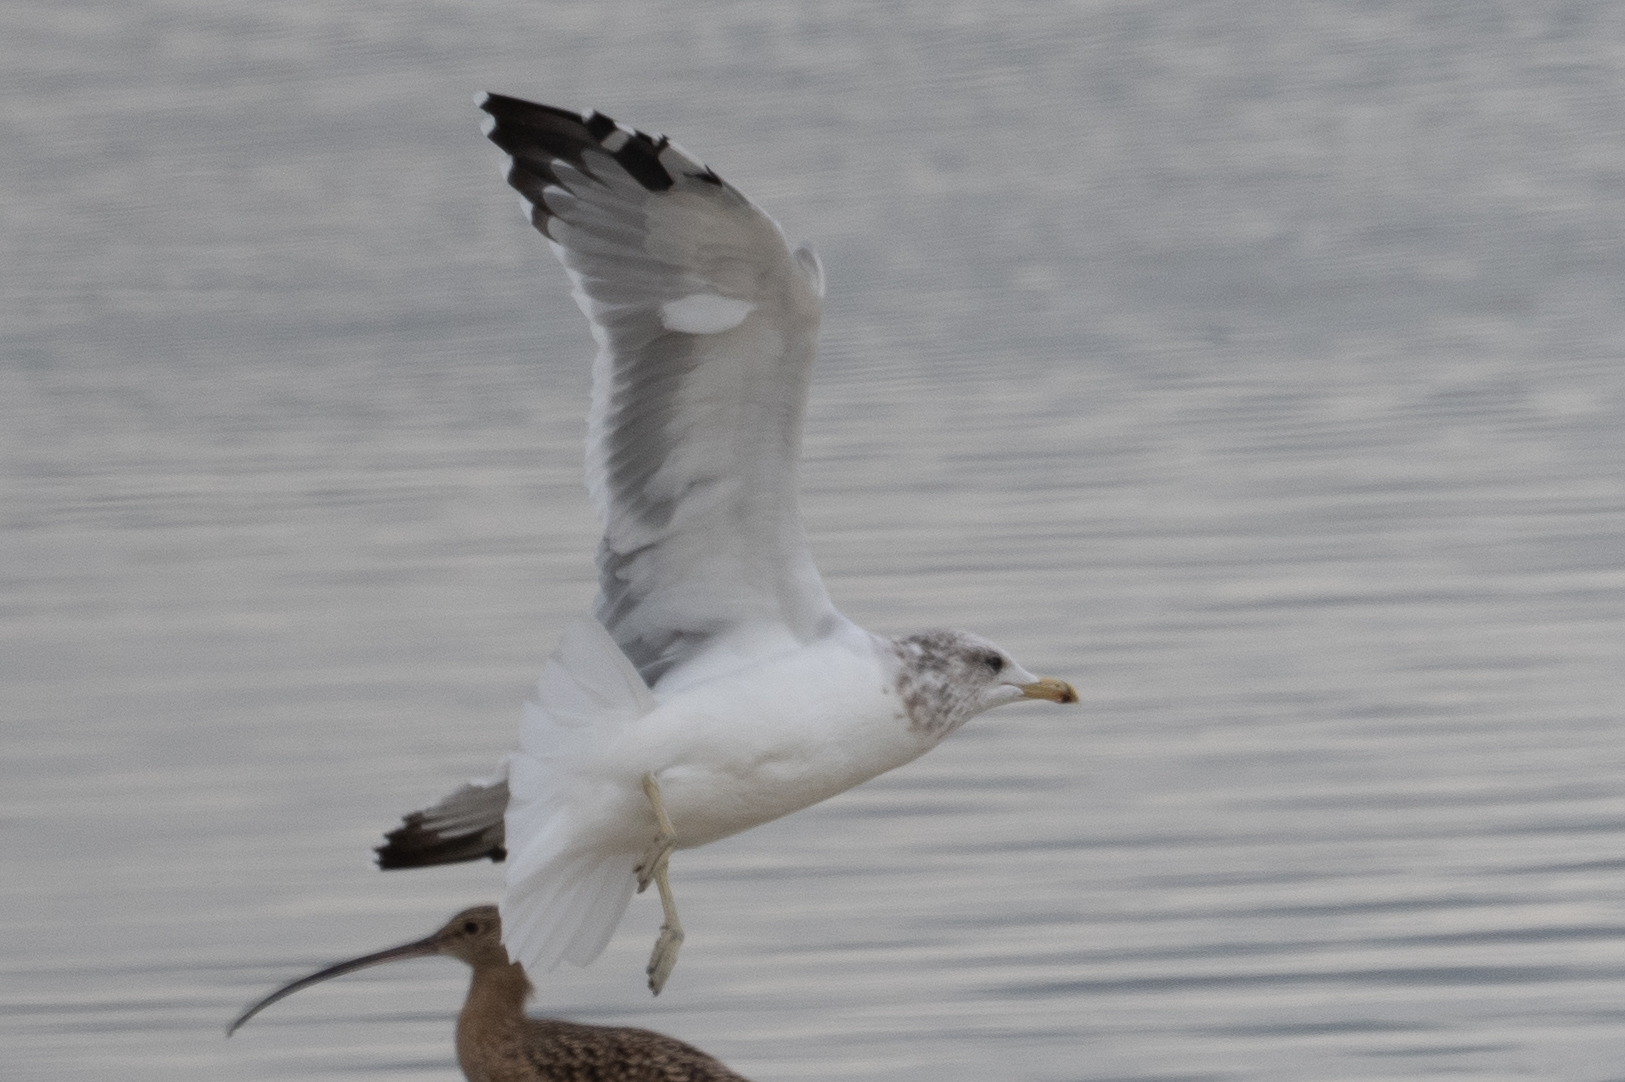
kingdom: Animalia
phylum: Chordata
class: Aves
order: Charadriiformes
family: Laridae
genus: Larus
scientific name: Larus californicus
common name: California gull
